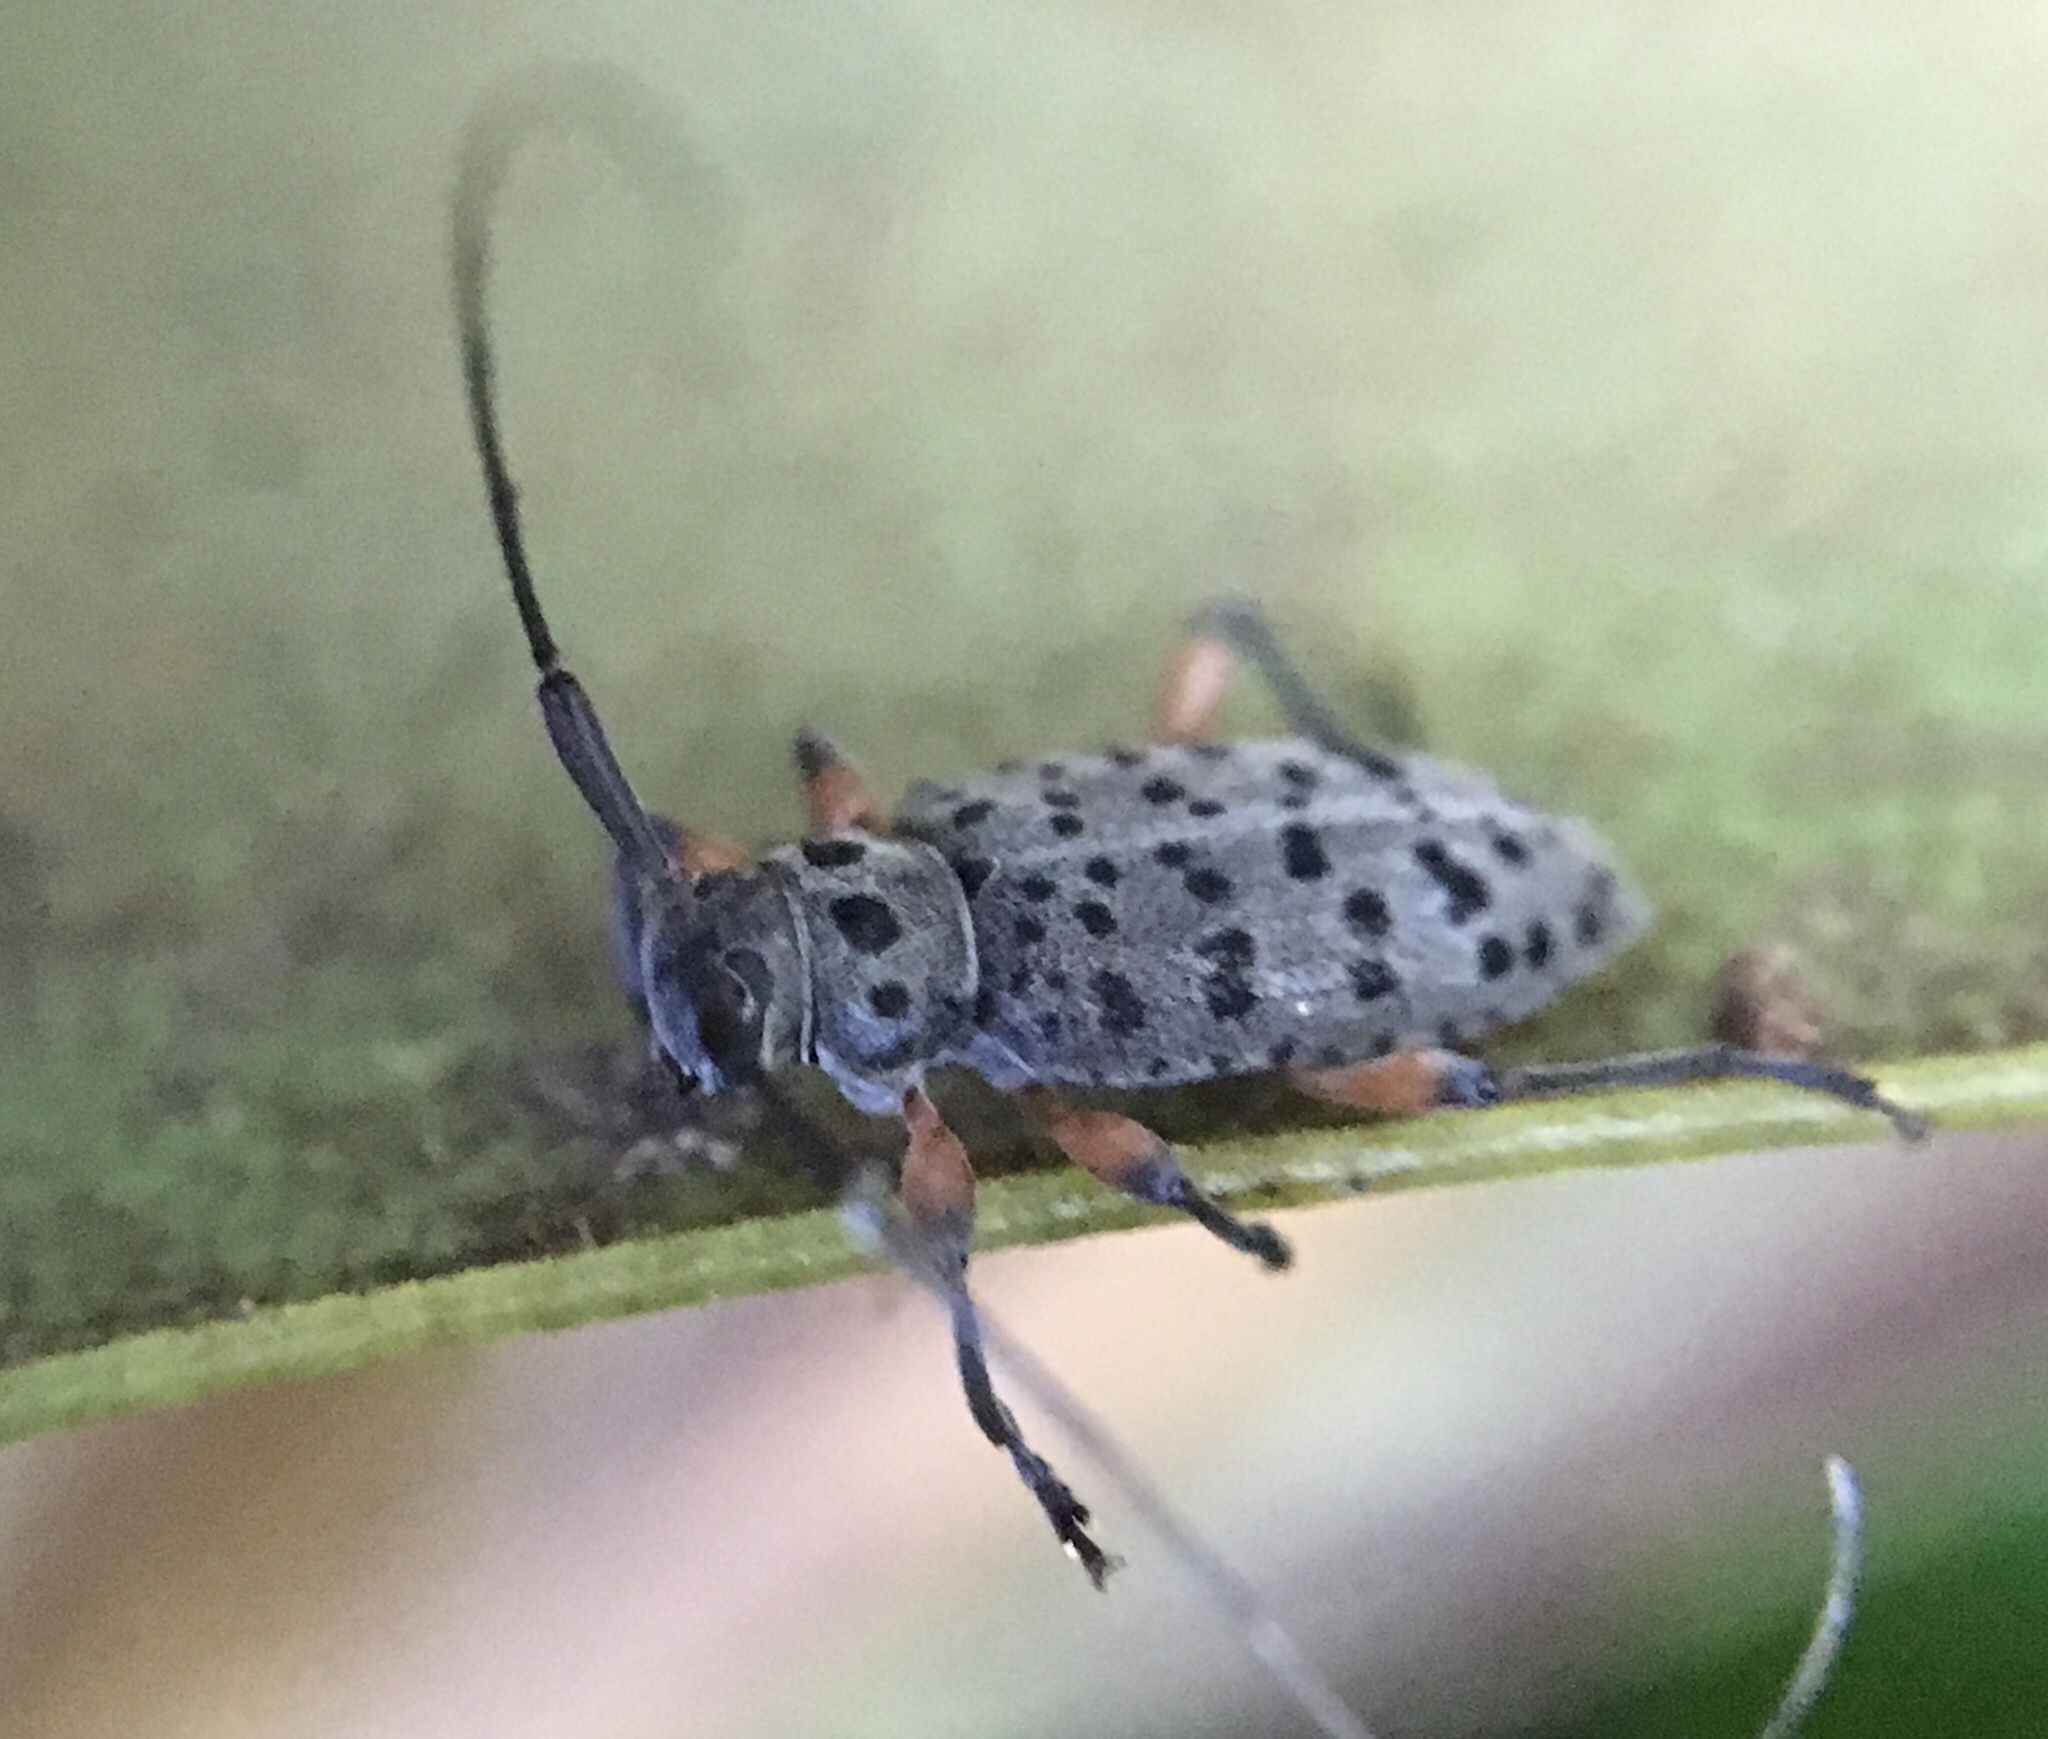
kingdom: Animalia
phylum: Arthropoda
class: Insecta
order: Coleoptera
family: Cerambycidae
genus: Hyperplatys
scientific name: Hyperplatys aspersa
